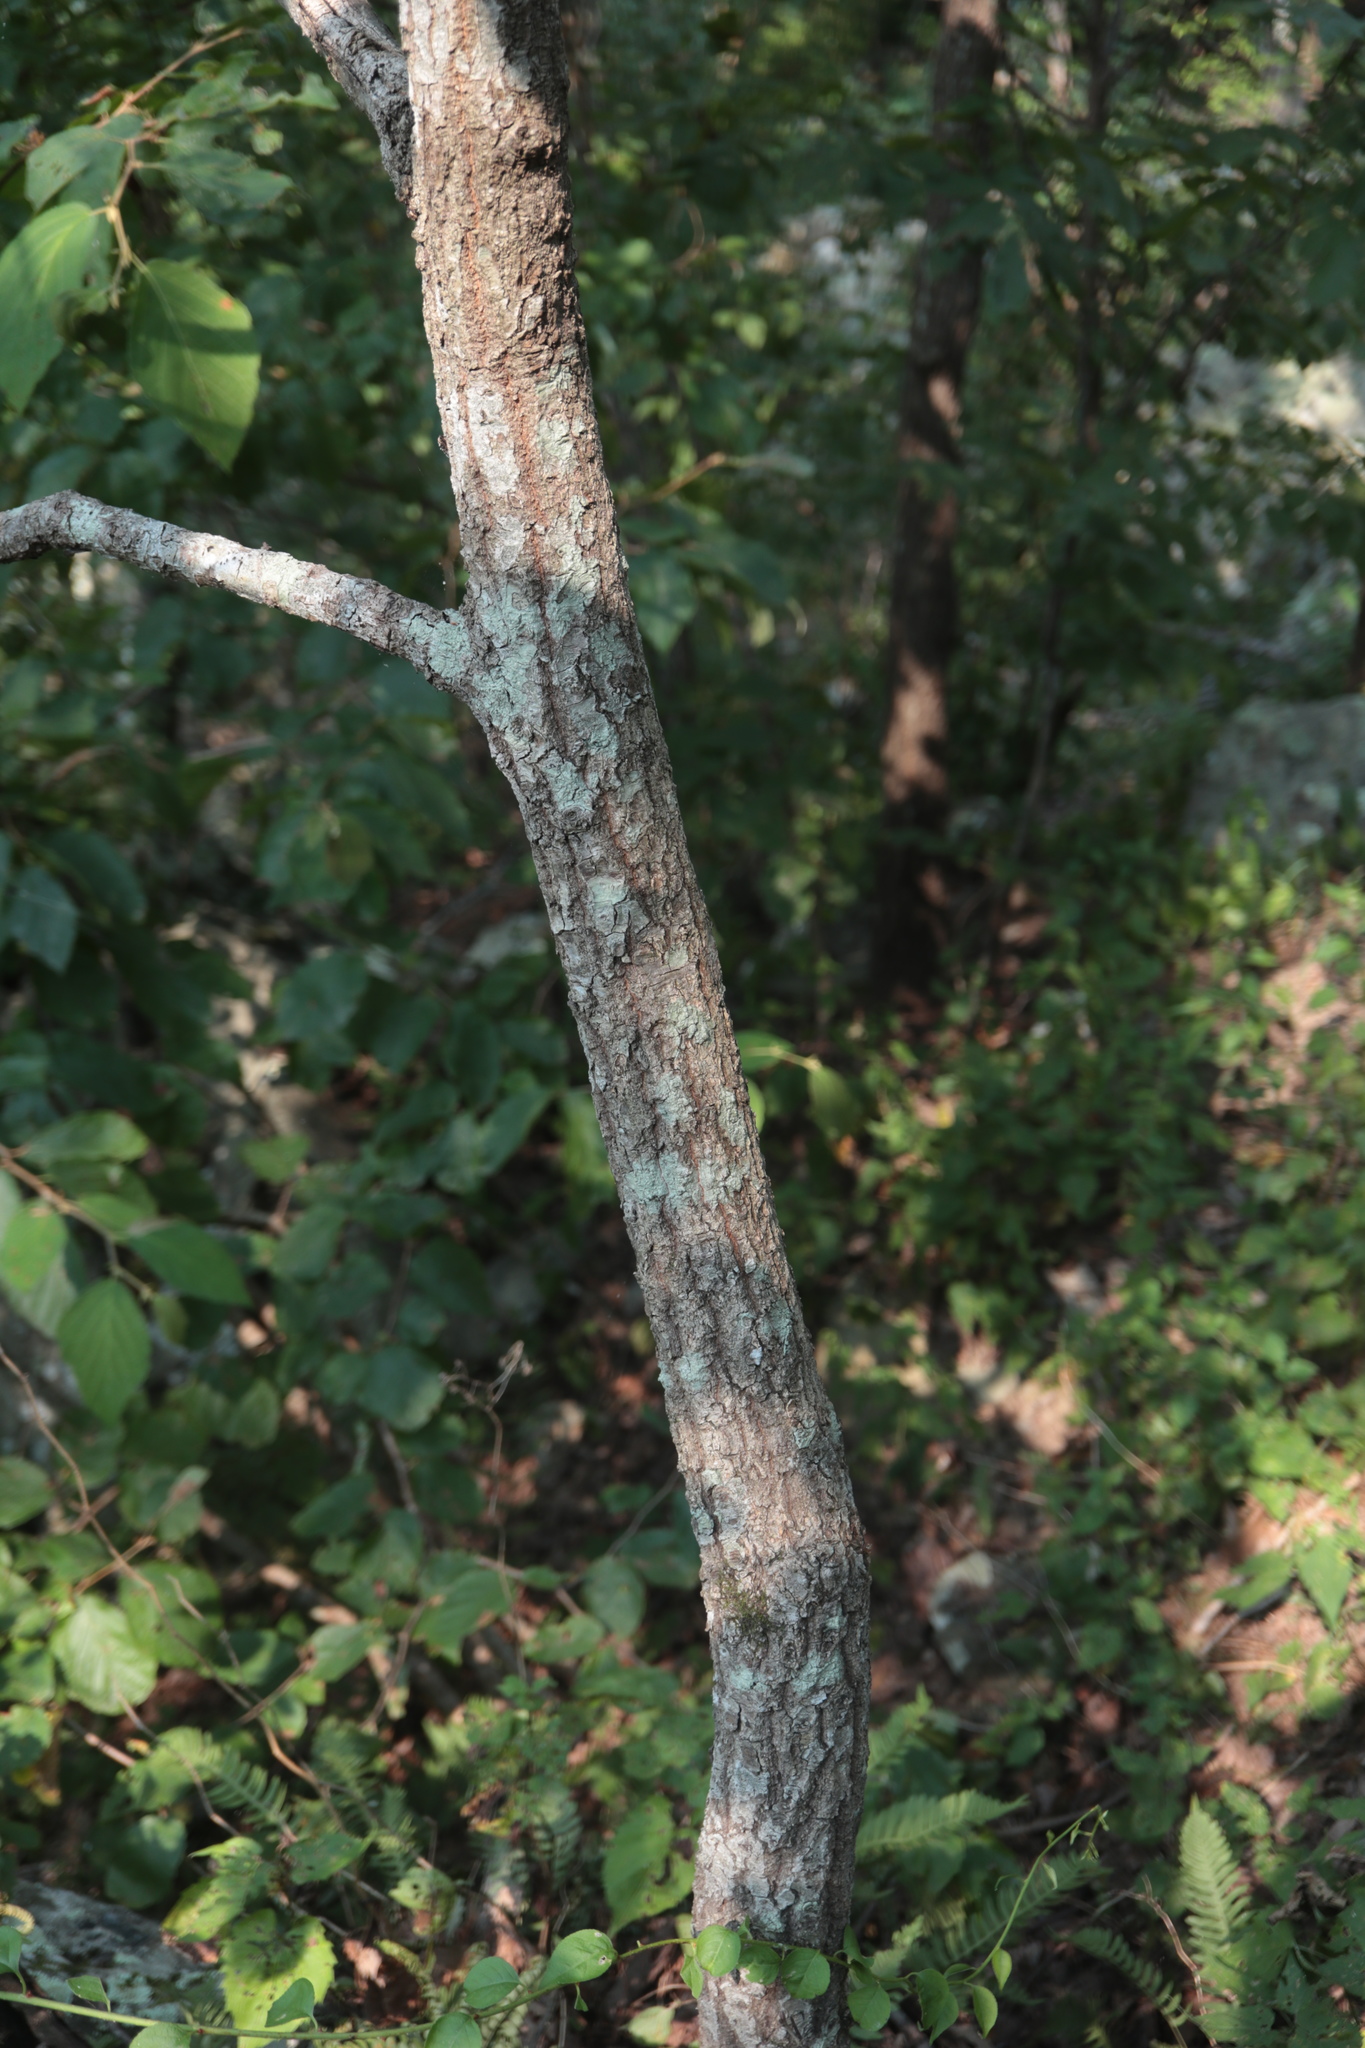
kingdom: Plantae
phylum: Tracheophyta
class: Magnoliopsida
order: Fagales
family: Fagaceae
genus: Quercus
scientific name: Quercus montana
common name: Chestnut oak
